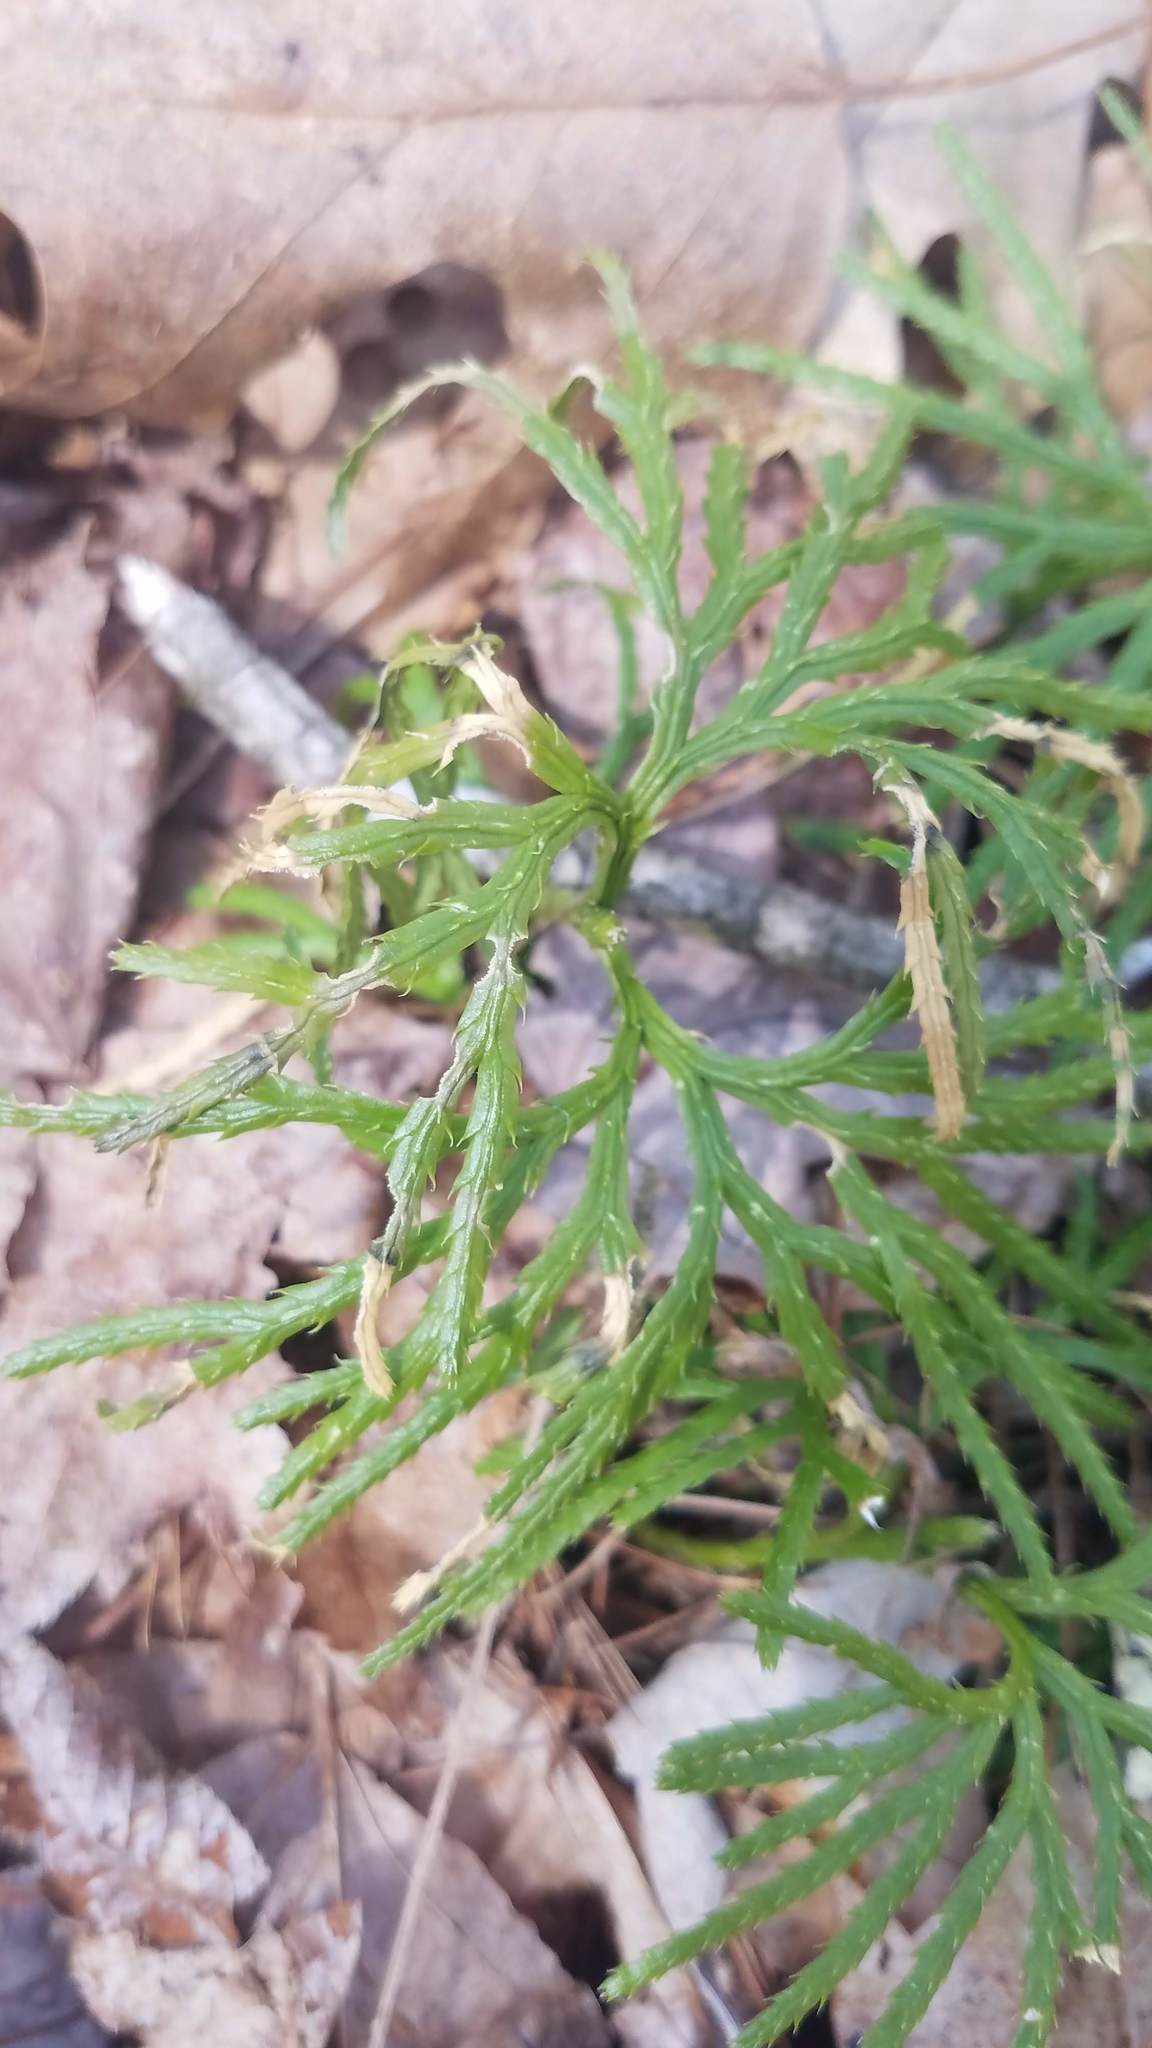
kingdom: Plantae
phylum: Tracheophyta
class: Lycopodiopsida
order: Lycopodiales
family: Lycopodiaceae
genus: Diphasiastrum
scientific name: Diphasiastrum digitatum
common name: Southern running-pine
